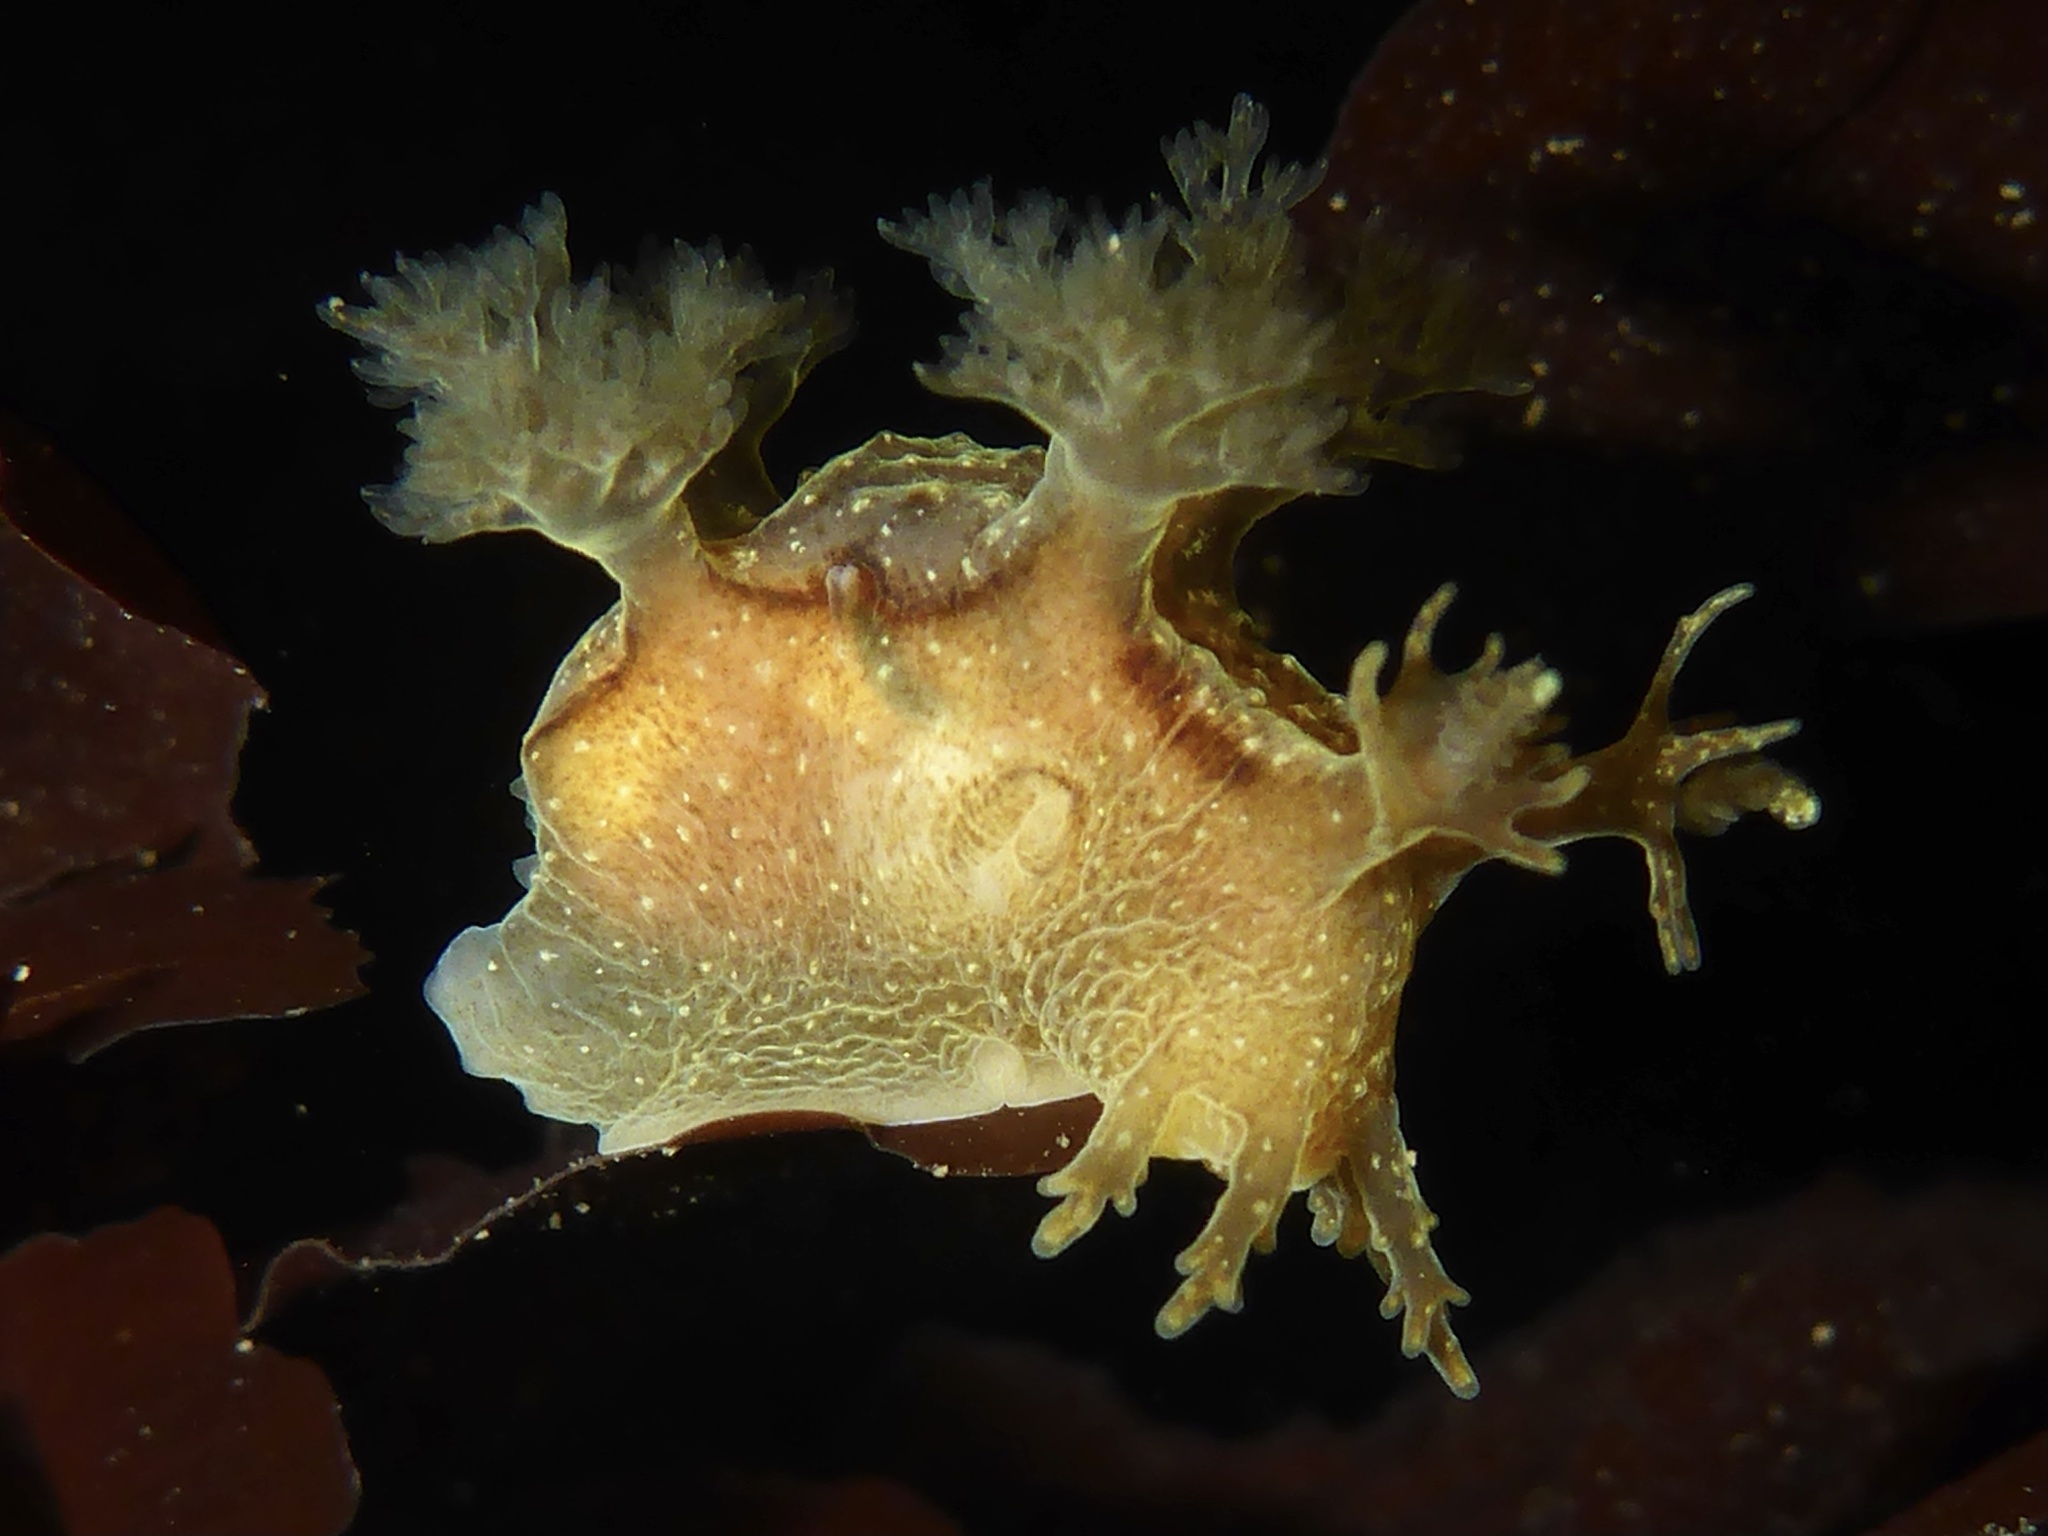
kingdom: Animalia
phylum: Mollusca
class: Gastropoda
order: Nudibranchia
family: Dendronotidae
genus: Dendronotus
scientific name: Dendronotus subramosus
